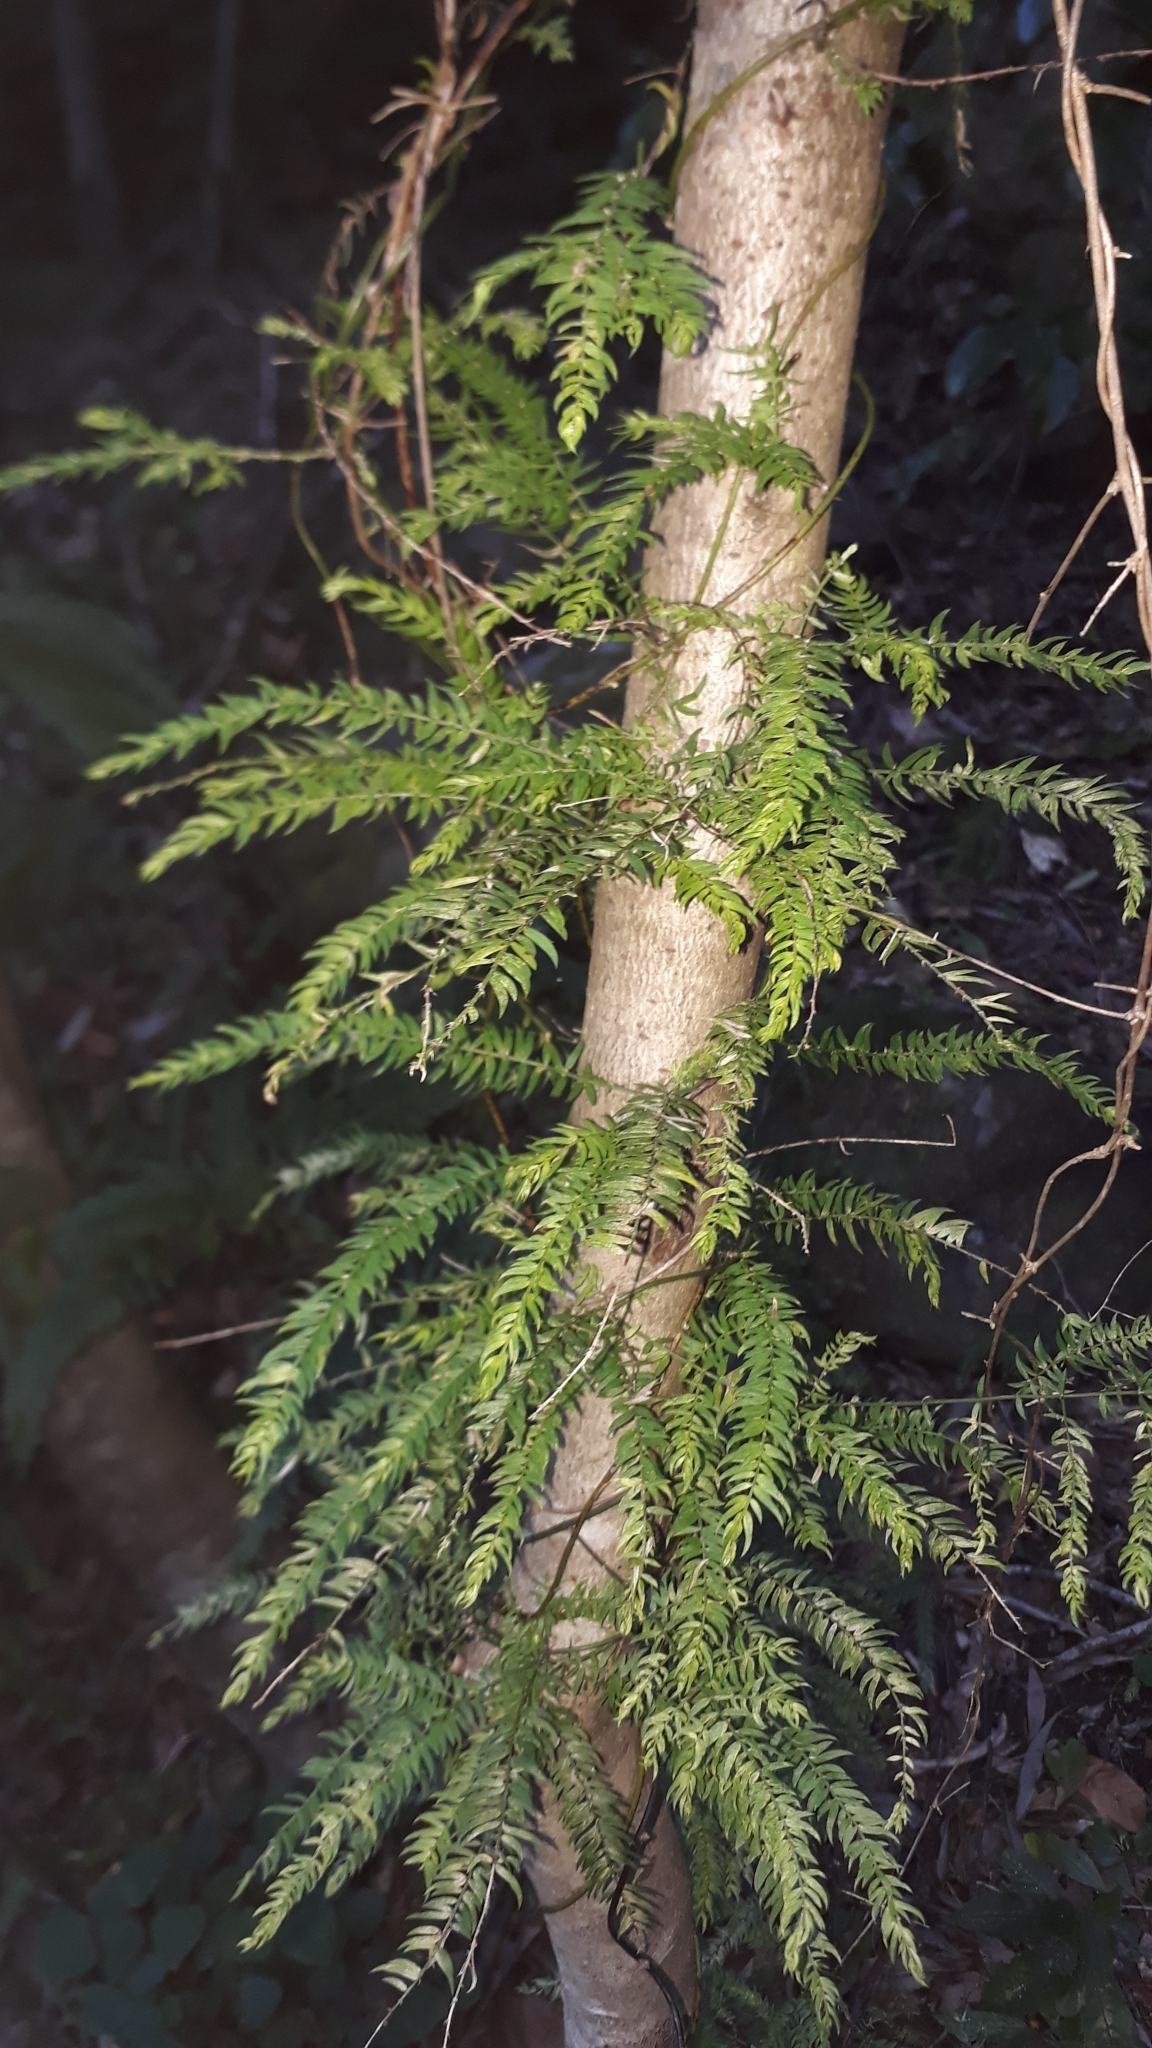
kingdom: Plantae
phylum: Tracheophyta
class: Liliopsida
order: Asparagales
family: Asparagaceae
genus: Asparagus
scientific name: Asparagus scandens
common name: Asparagus-fern
